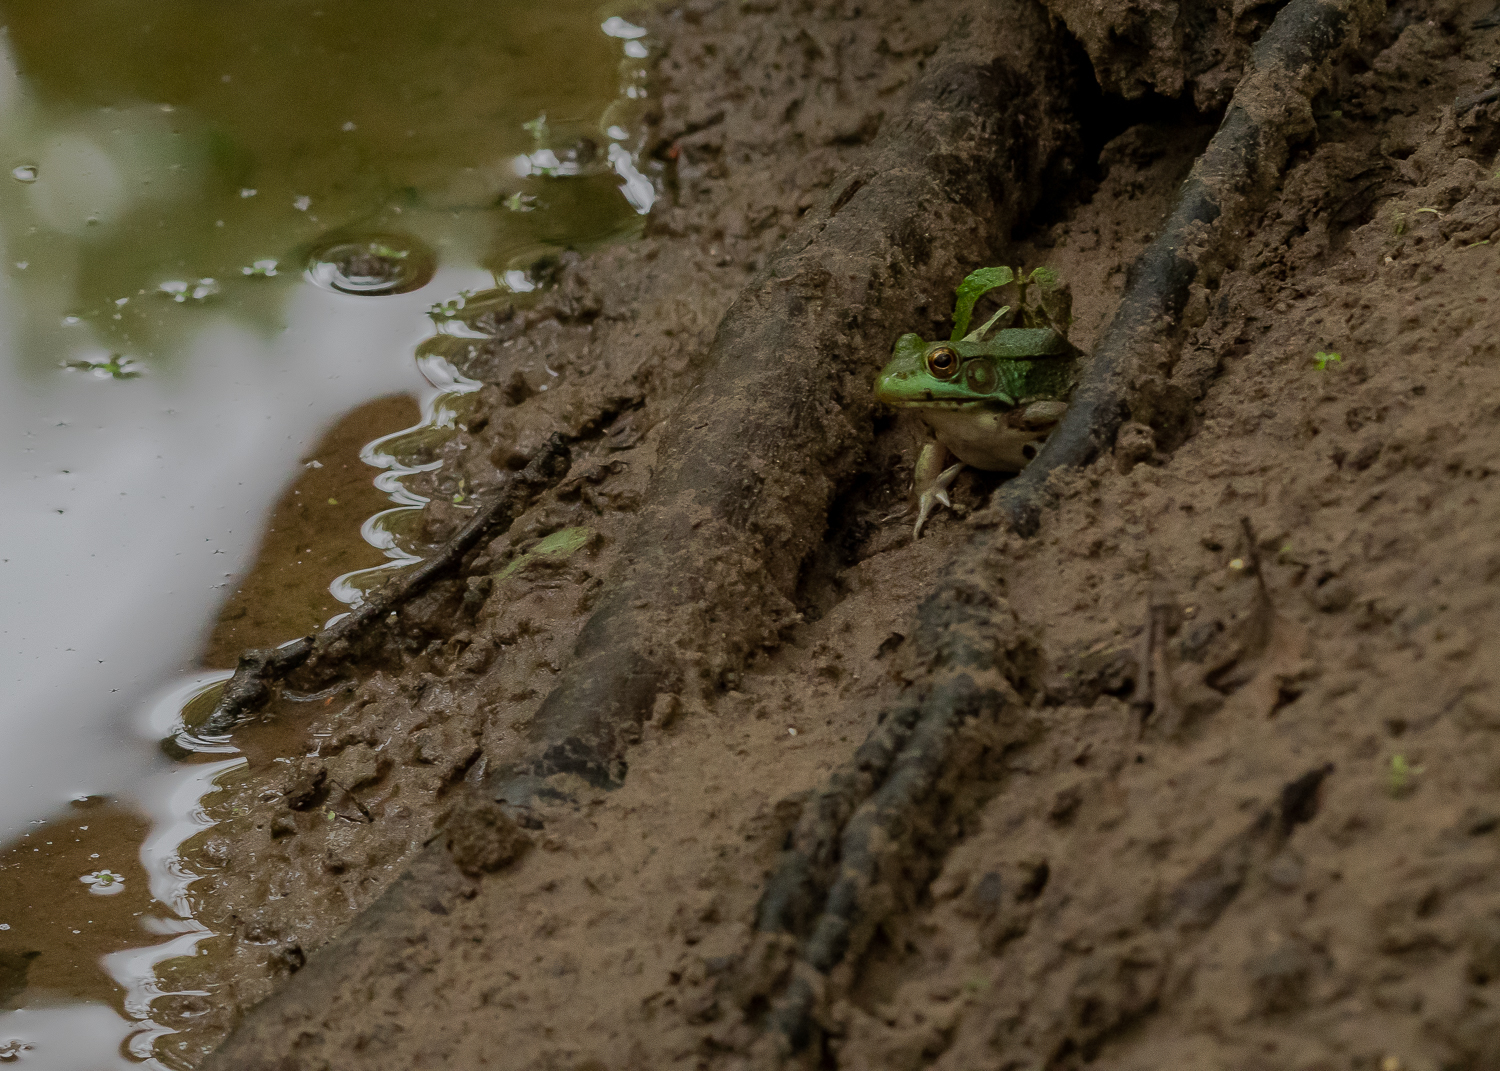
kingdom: Animalia
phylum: Chordata
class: Amphibia
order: Anura
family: Ranidae
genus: Lithobates
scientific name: Lithobates clamitans
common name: Green frog
